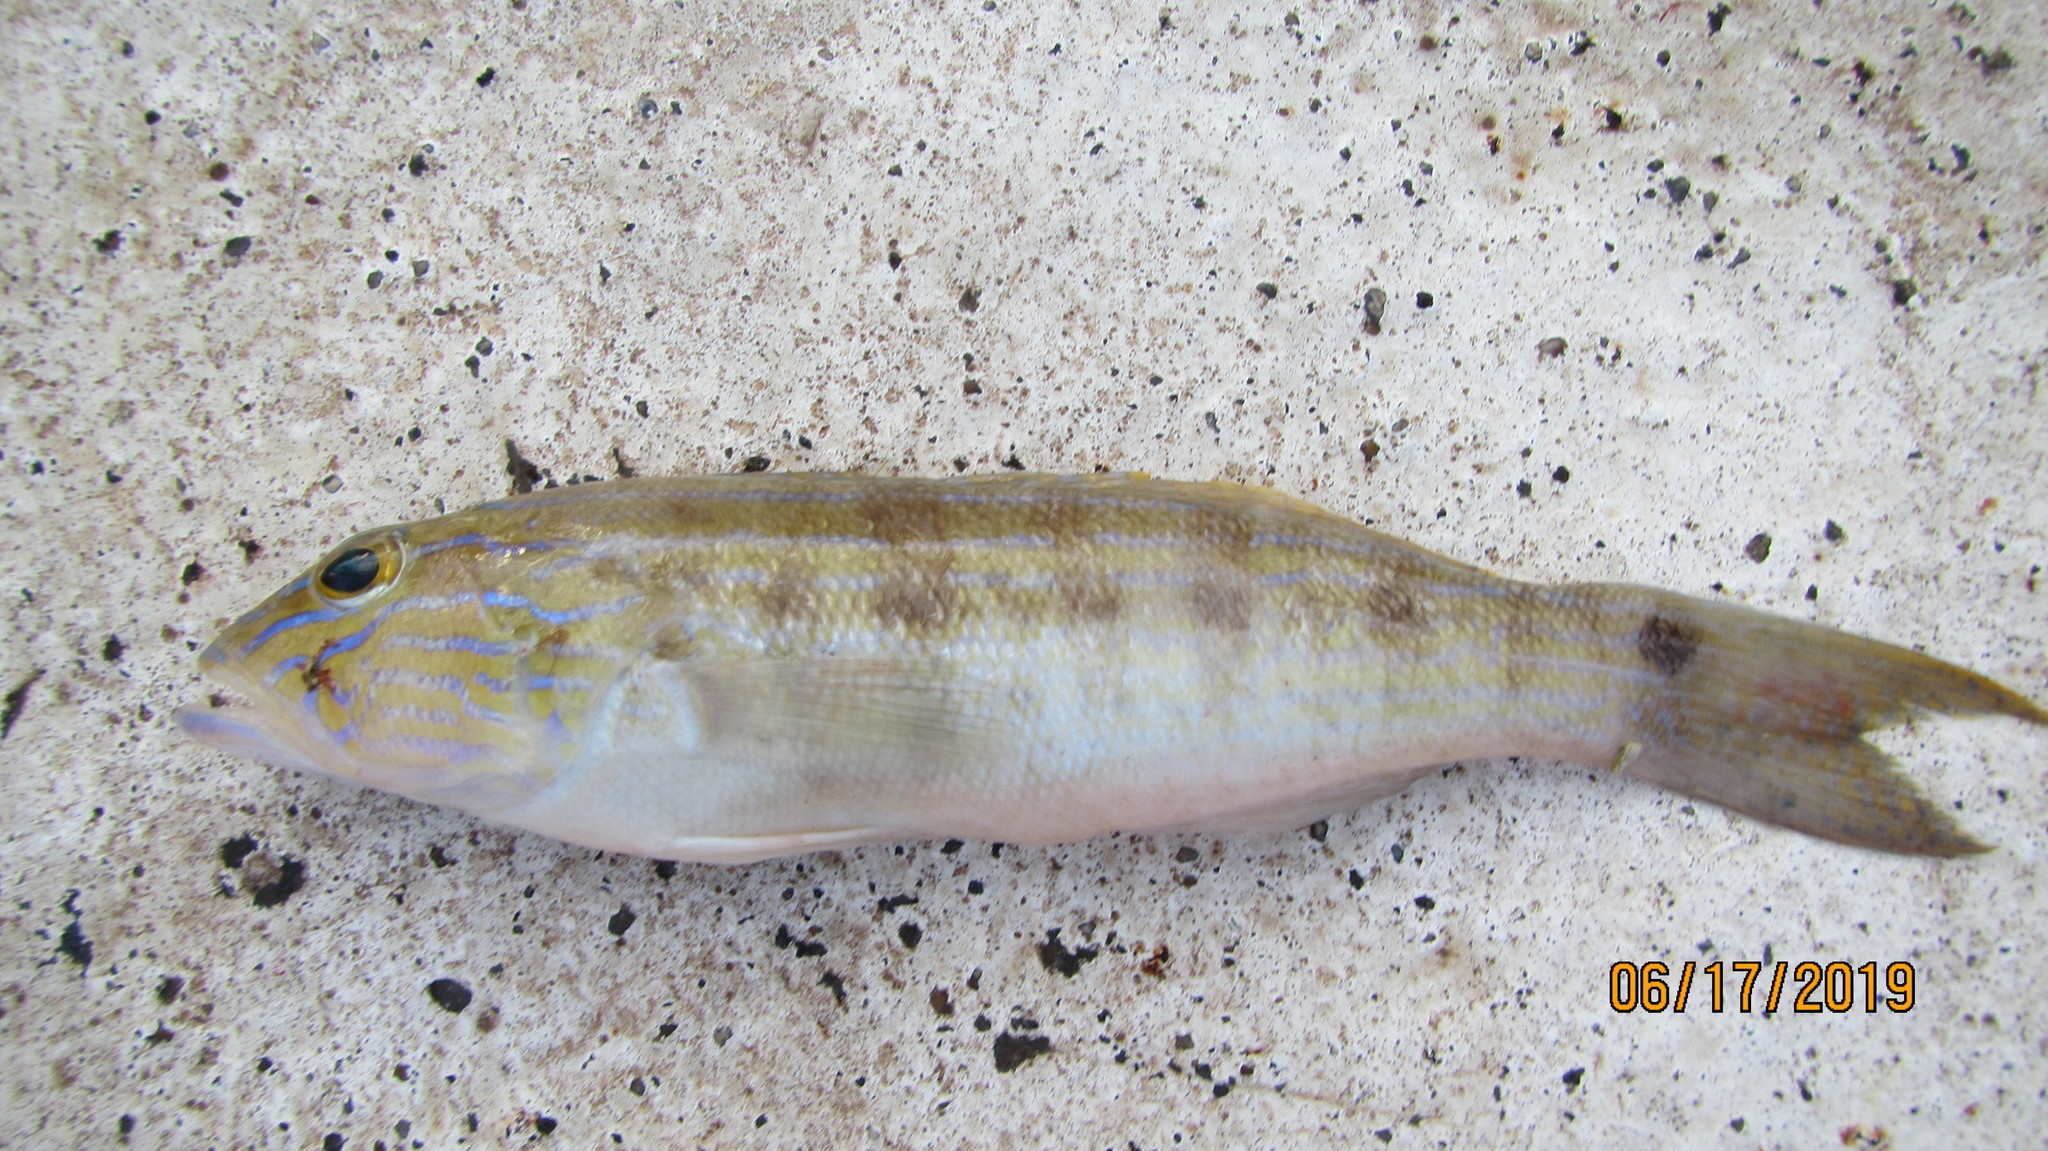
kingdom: Animalia
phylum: Chordata
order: Perciformes
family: Serranidae
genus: Diplectrum
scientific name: Diplectrum formosum
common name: Sand perch
